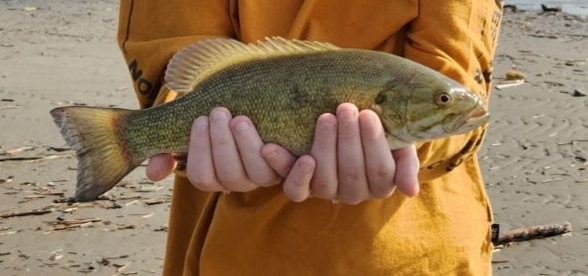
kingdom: Animalia
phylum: Chordata
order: Perciformes
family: Centrarchidae
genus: Micropterus
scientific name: Micropterus dolomieu
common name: Smallmouth bass
